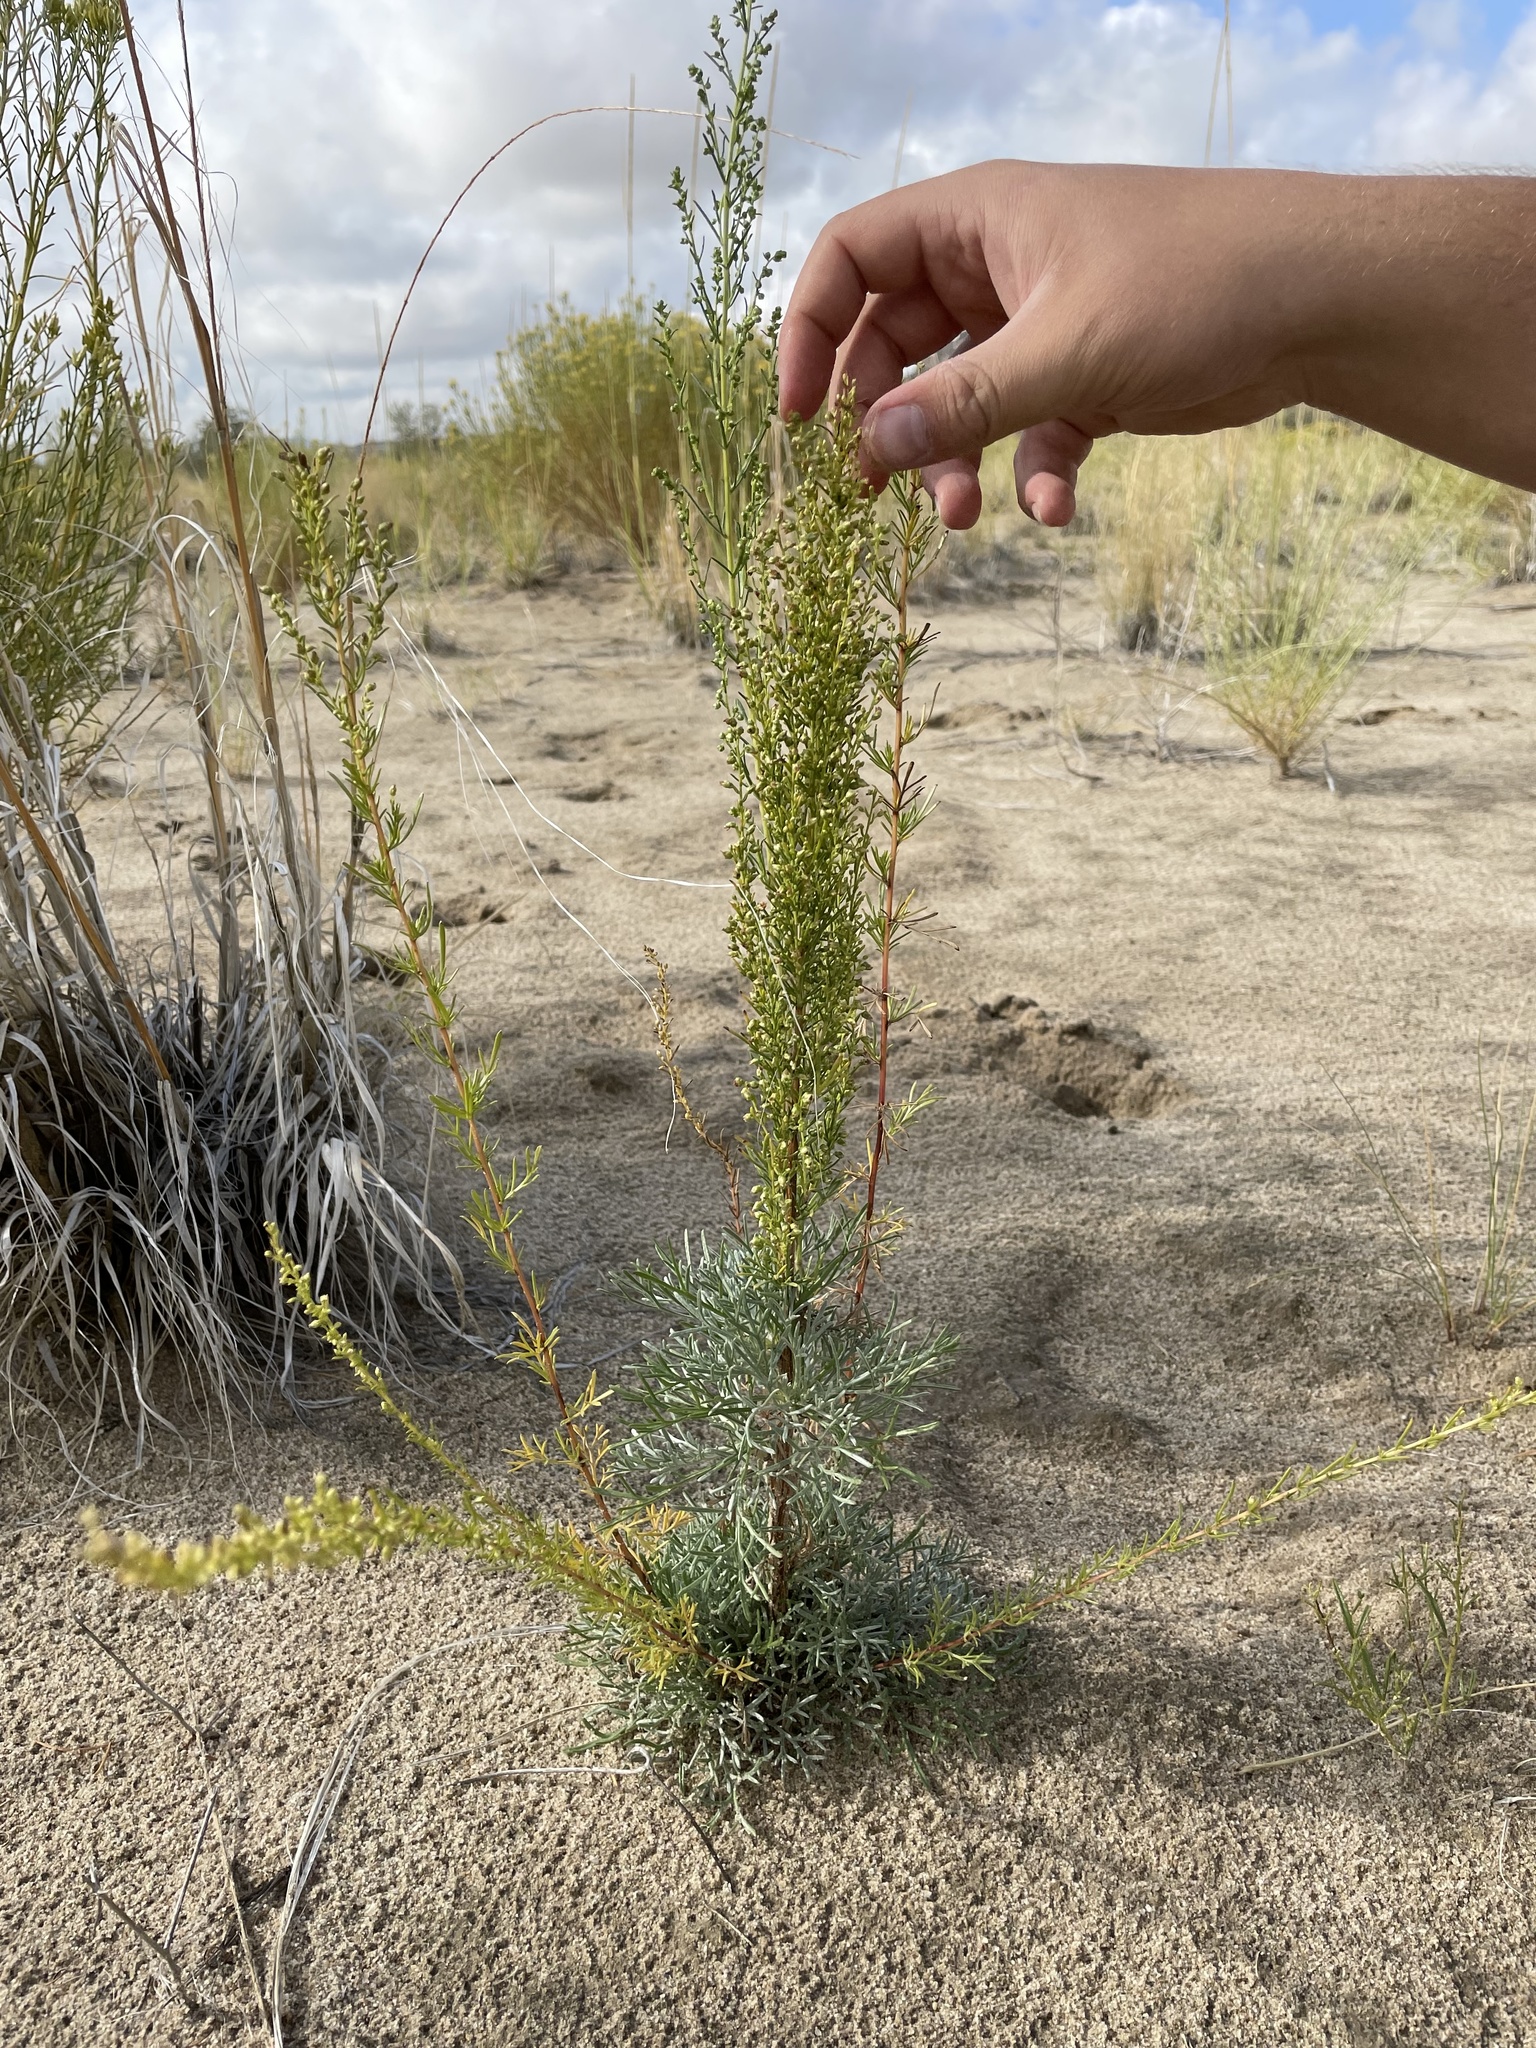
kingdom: Plantae
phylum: Tracheophyta
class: Magnoliopsida
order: Asterales
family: Asteraceae
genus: Artemisia
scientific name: Artemisia campestris
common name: Field wormwood
